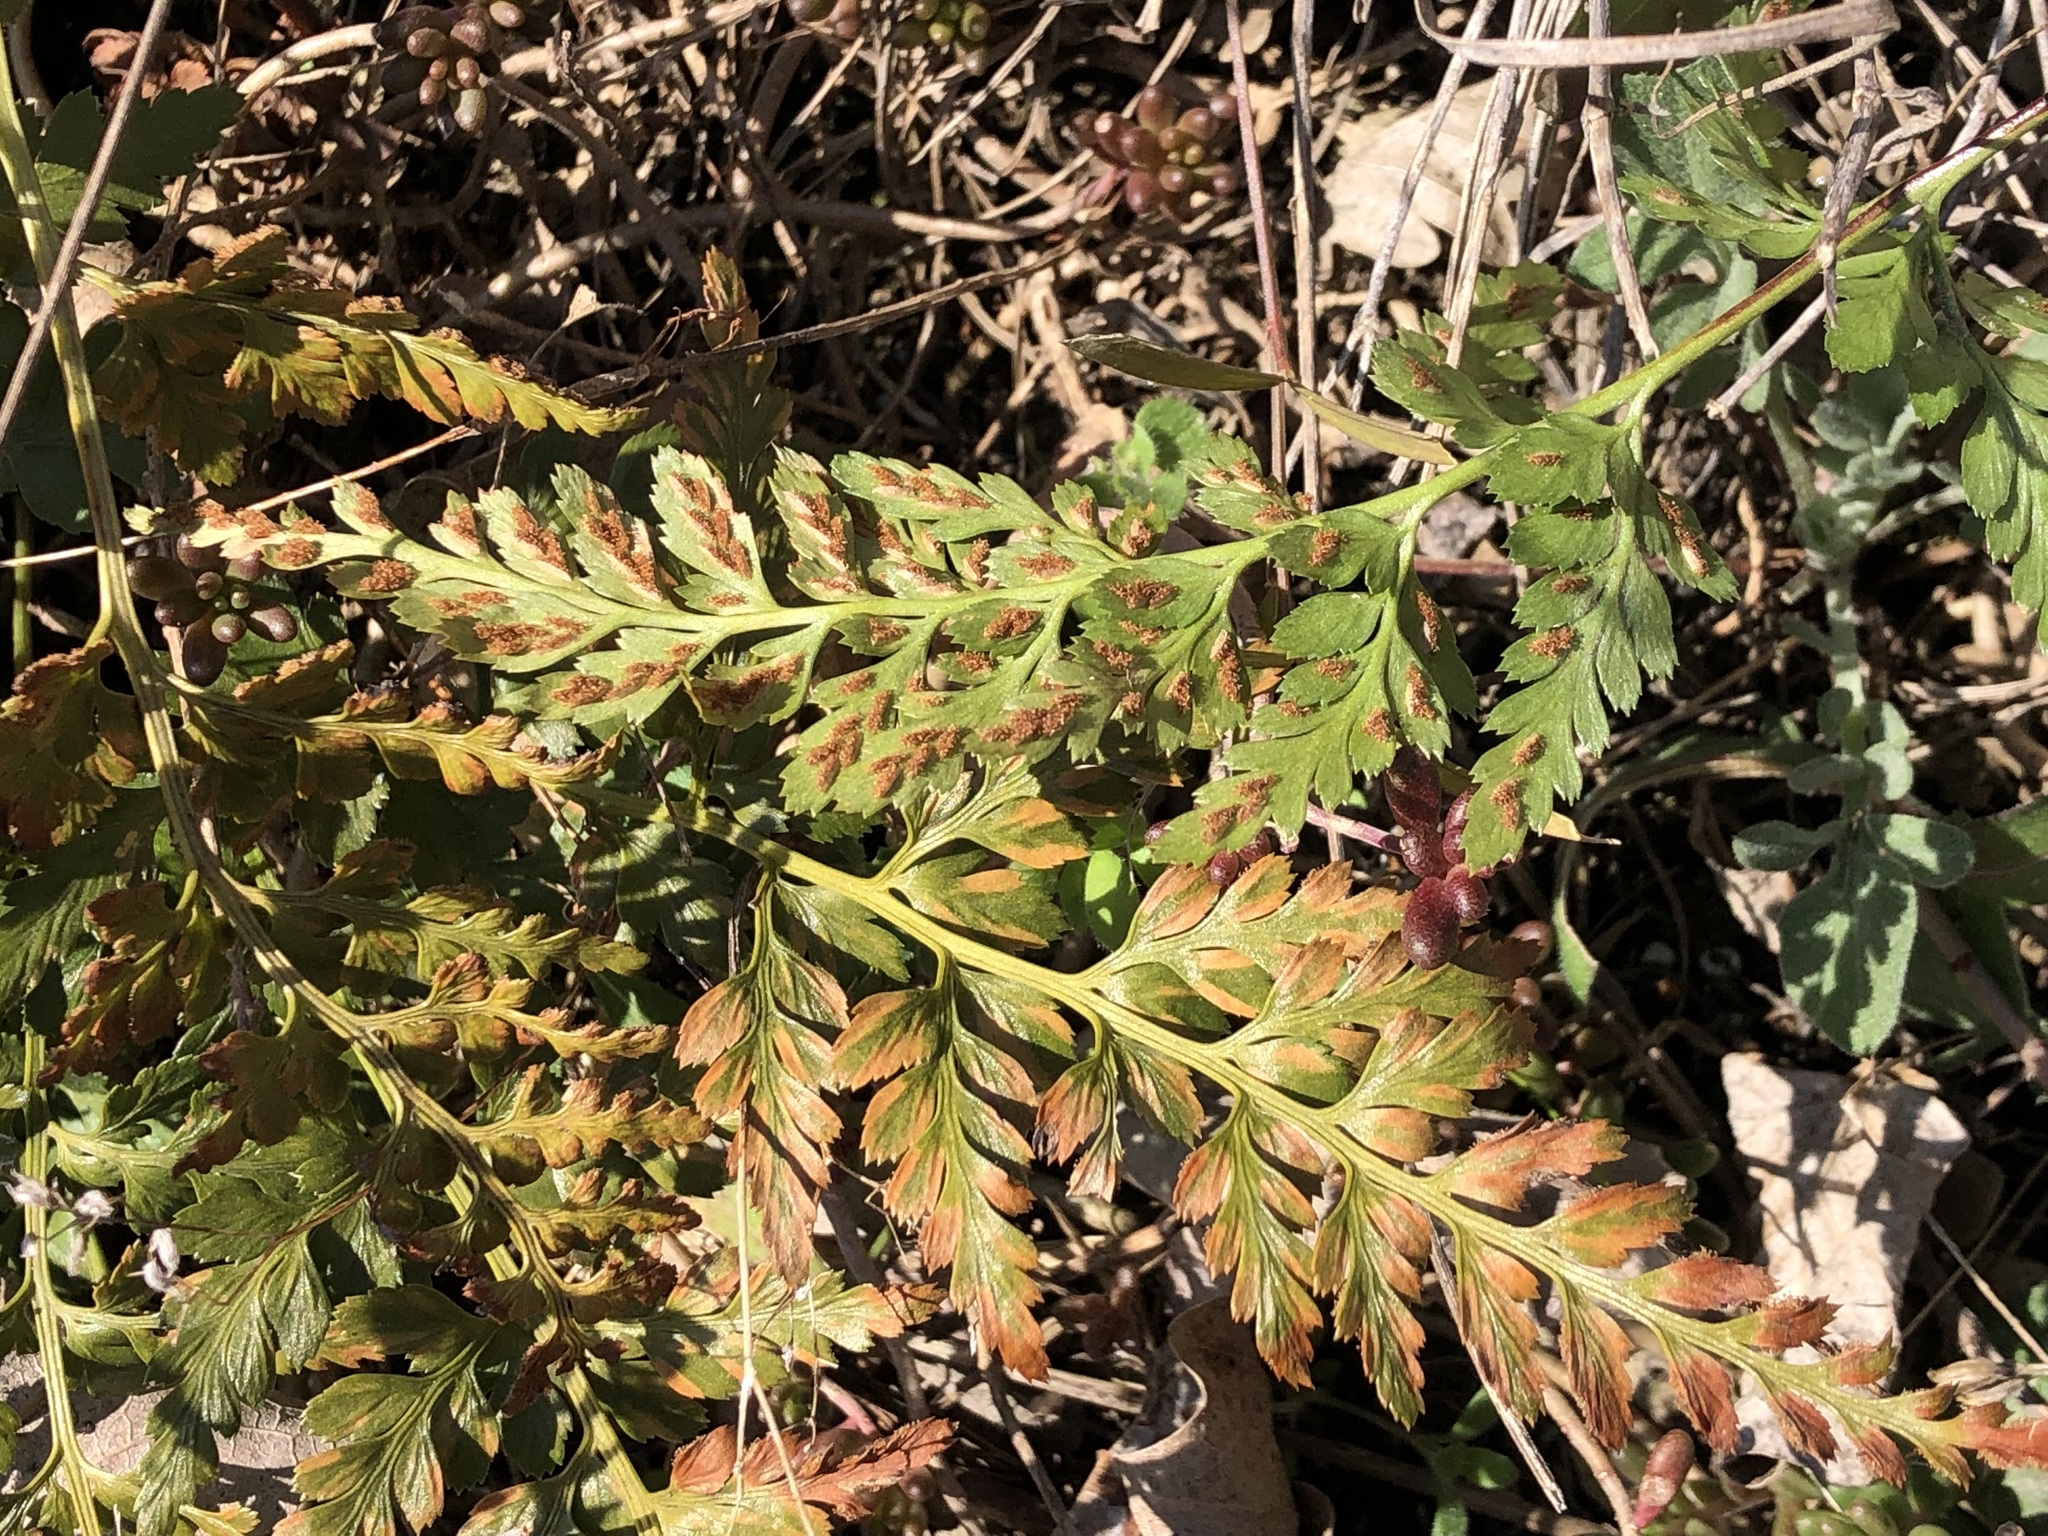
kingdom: Plantae
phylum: Tracheophyta
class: Polypodiopsida
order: Polypodiales
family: Aspleniaceae
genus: Asplenium
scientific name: Asplenium adiantum-nigrum
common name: Black spleenwort
